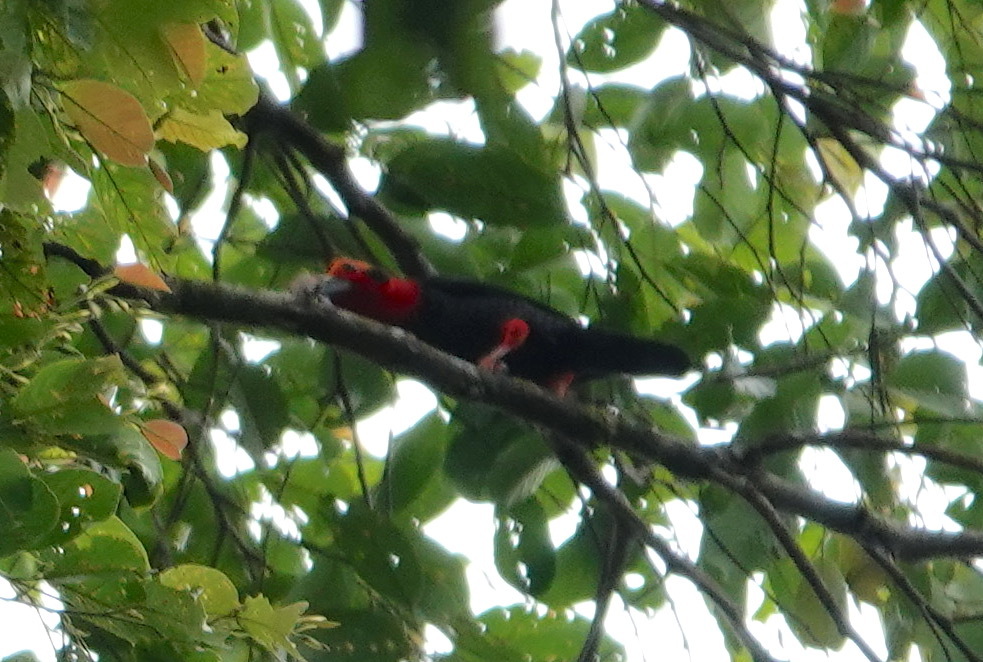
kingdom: Animalia
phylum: Chordata
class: Aves
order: Passeriformes
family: Pityriaseidae
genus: Pityriasis
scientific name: Pityriasis gymnocephala
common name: Bornean bristlehead
